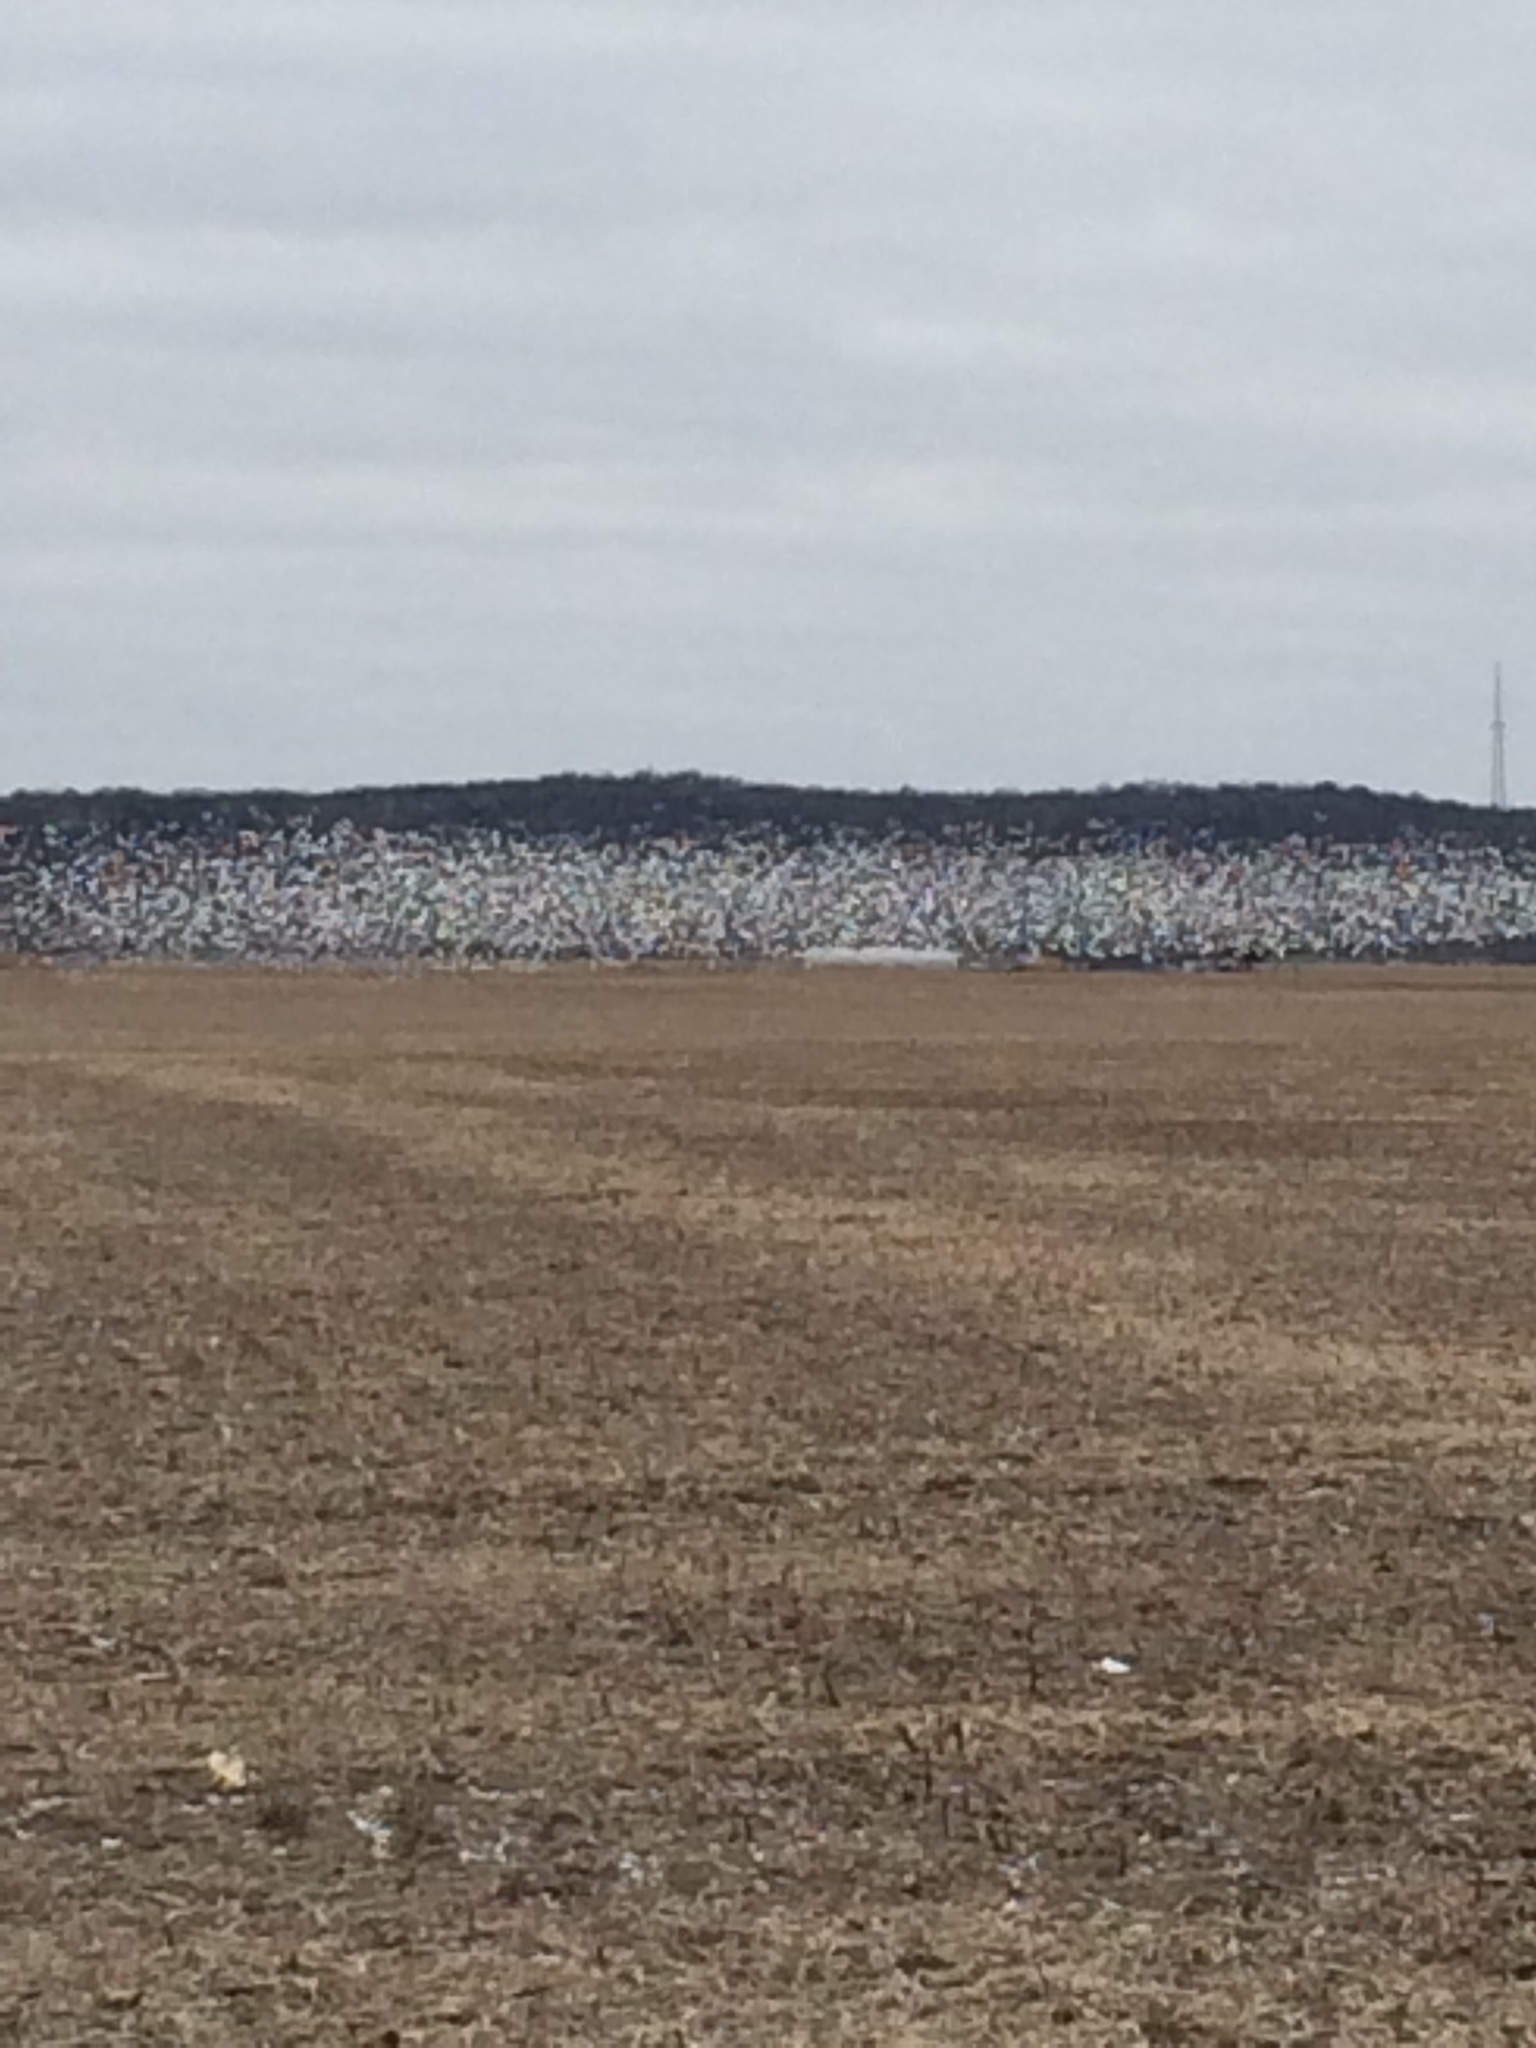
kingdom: Animalia
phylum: Chordata
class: Aves
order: Anseriformes
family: Anatidae
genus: Anser
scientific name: Anser caerulescens
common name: Snow goose
